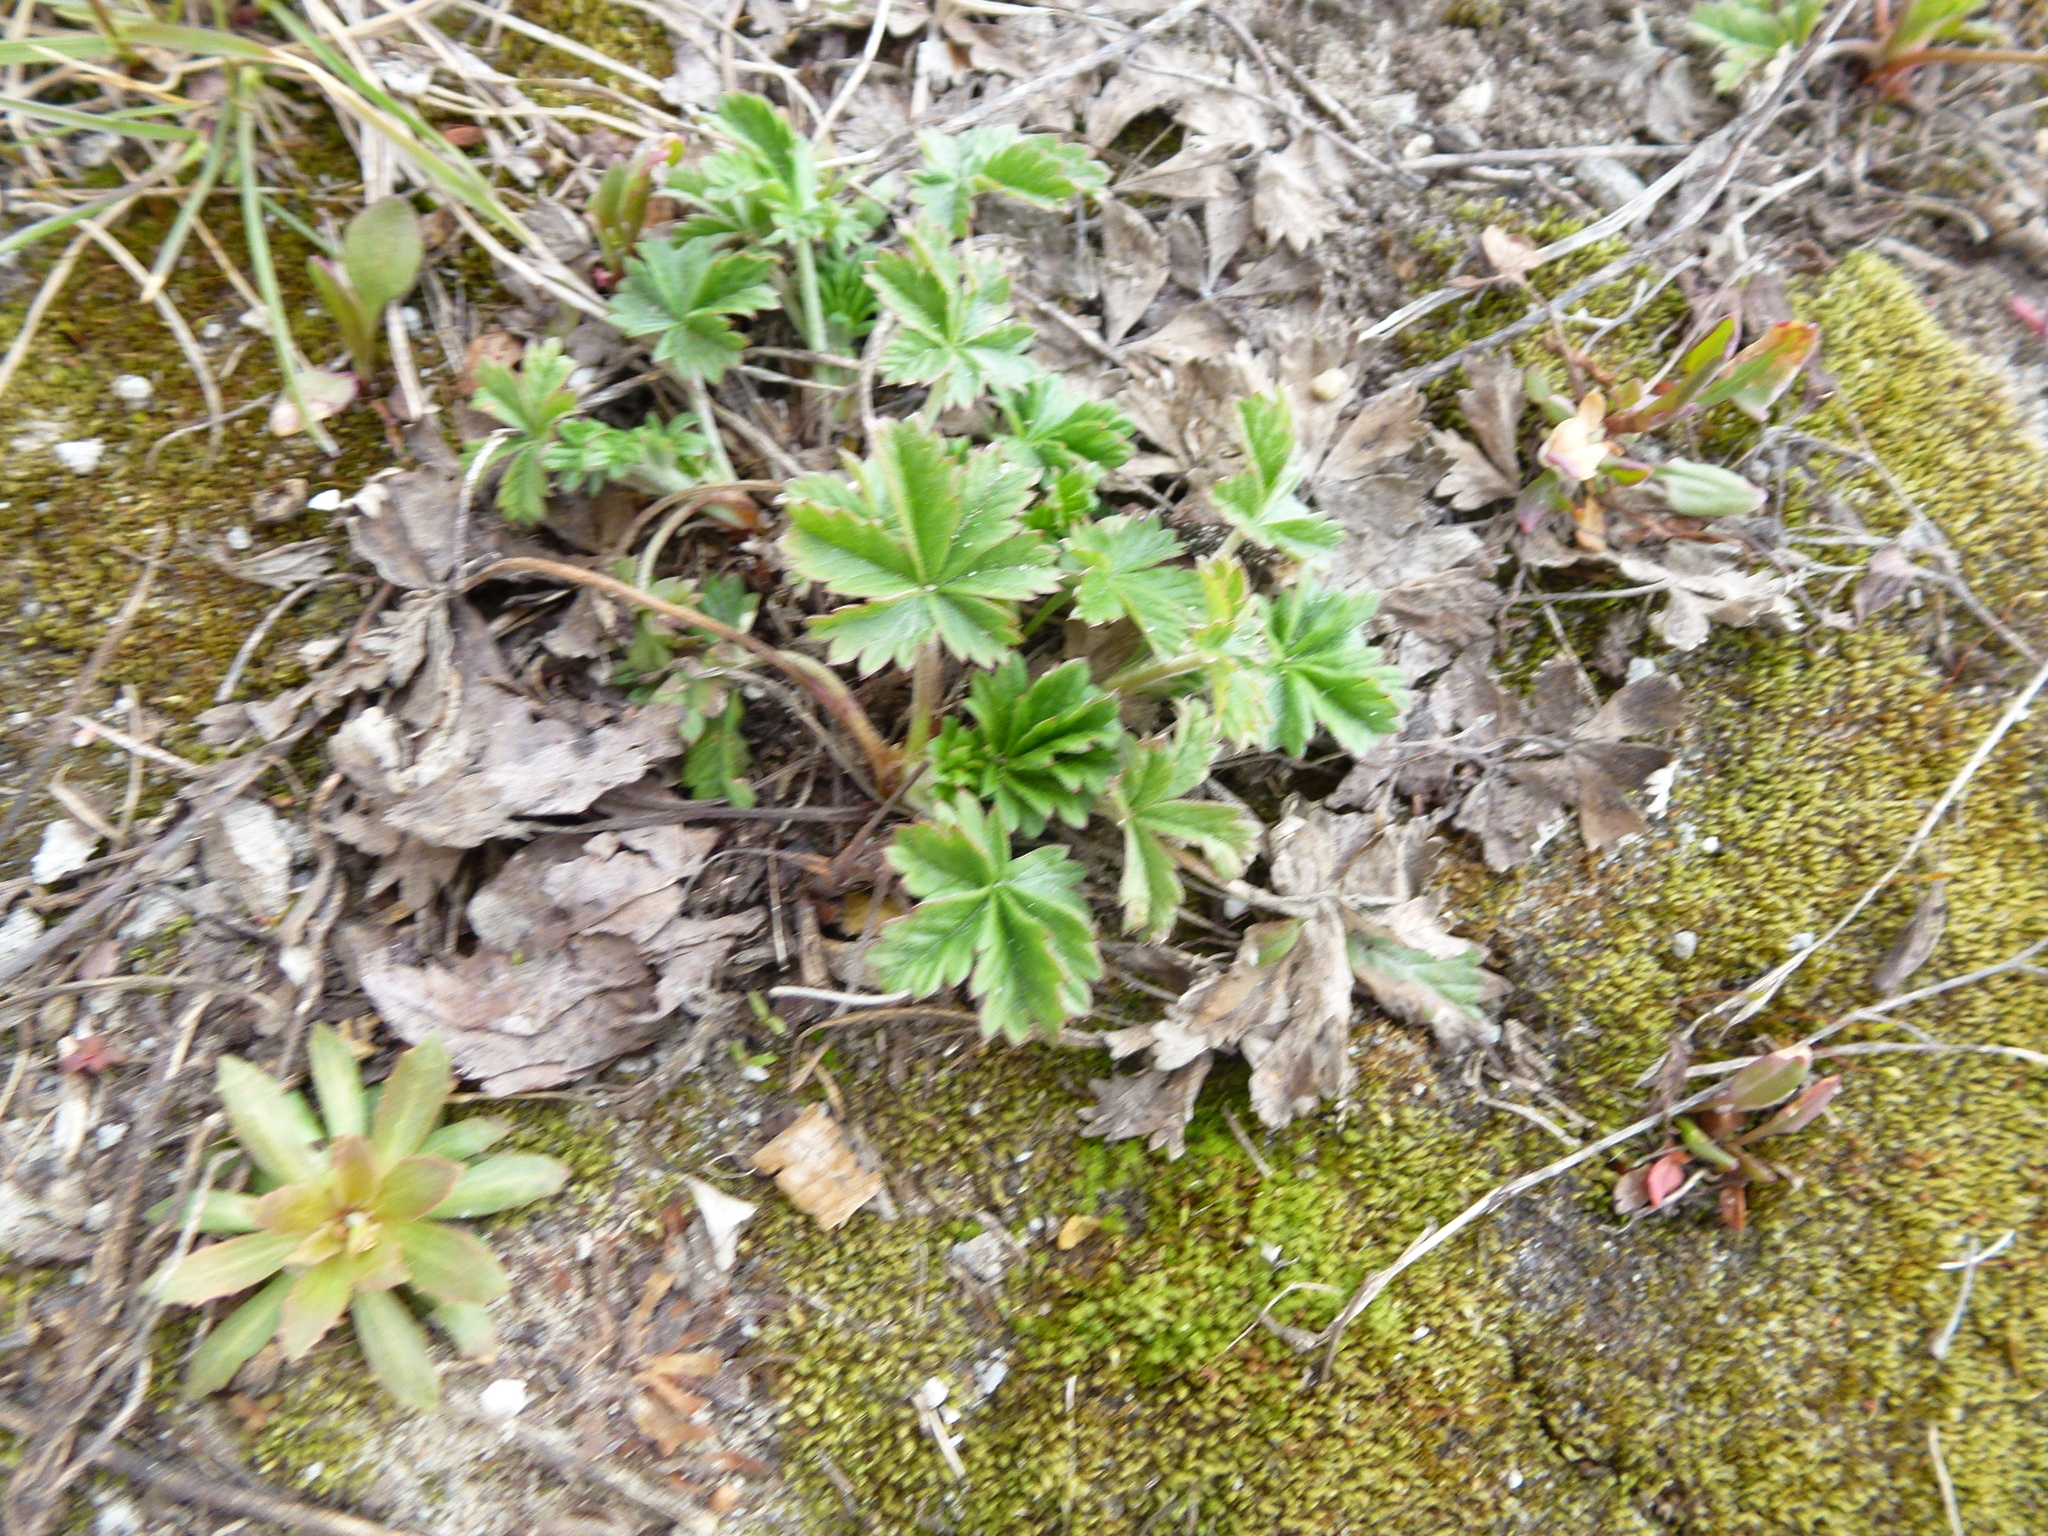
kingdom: Plantae
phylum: Tracheophyta
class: Magnoliopsida
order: Rosales
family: Rosaceae
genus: Potentilla
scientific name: Potentilla argentea
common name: Hoary cinquefoil
